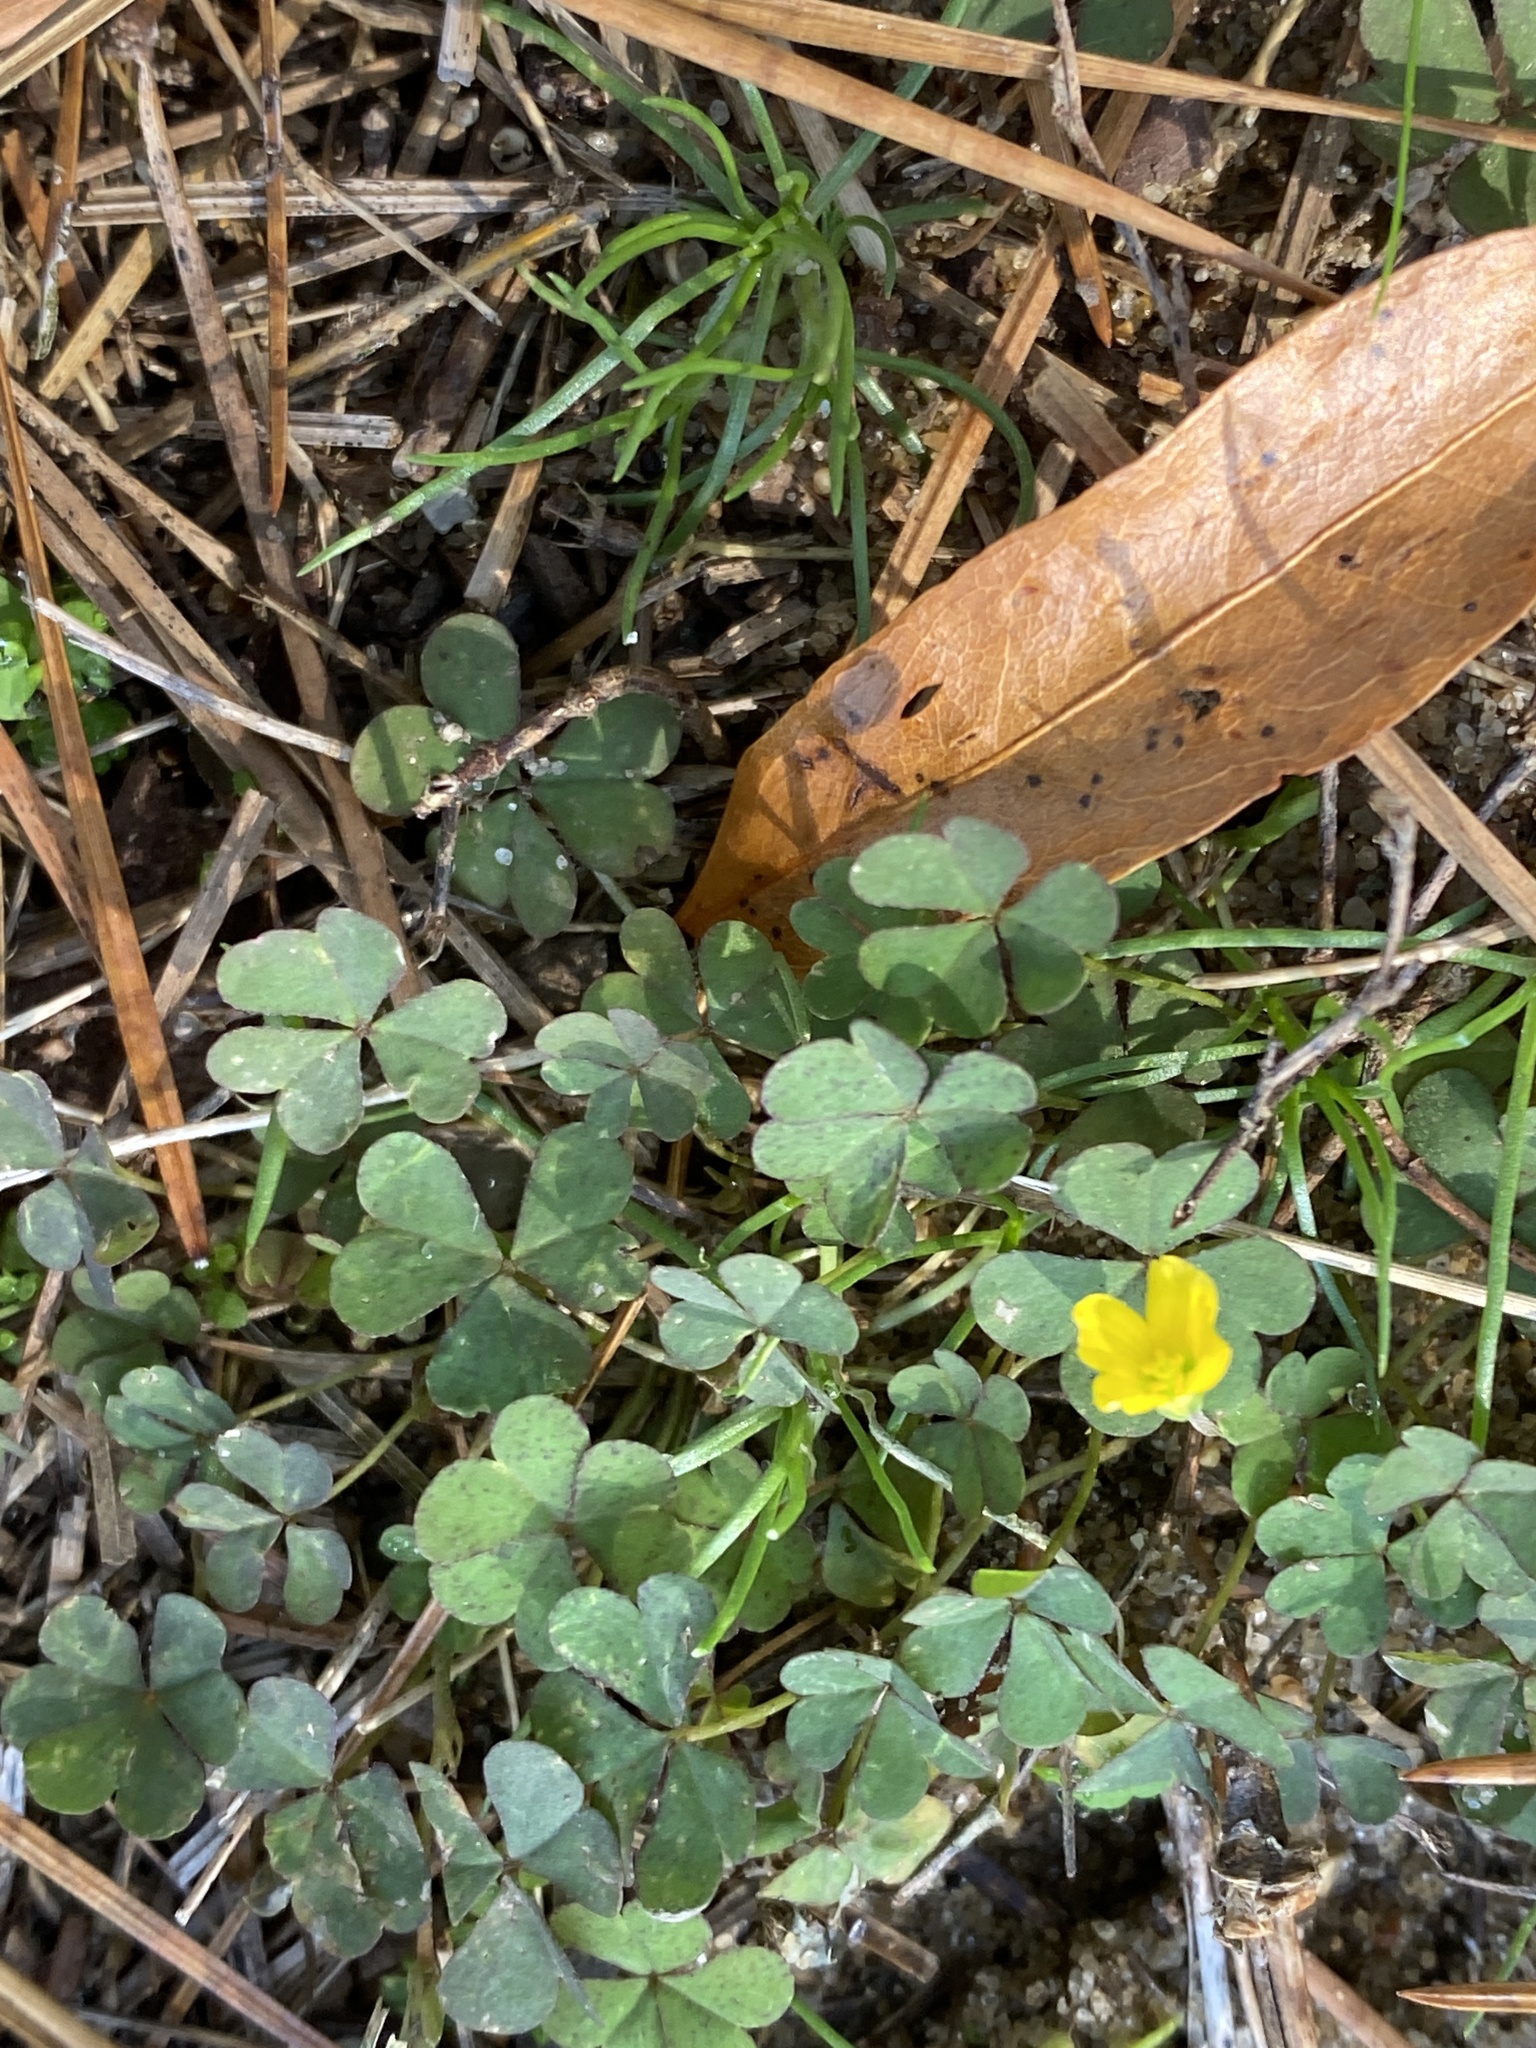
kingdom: Plantae
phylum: Tracheophyta
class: Magnoliopsida
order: Oxalidales
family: Oxalidaceae
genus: Oxalis
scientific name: Oxalis corniculata
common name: Procumbent yellow-sorrel
